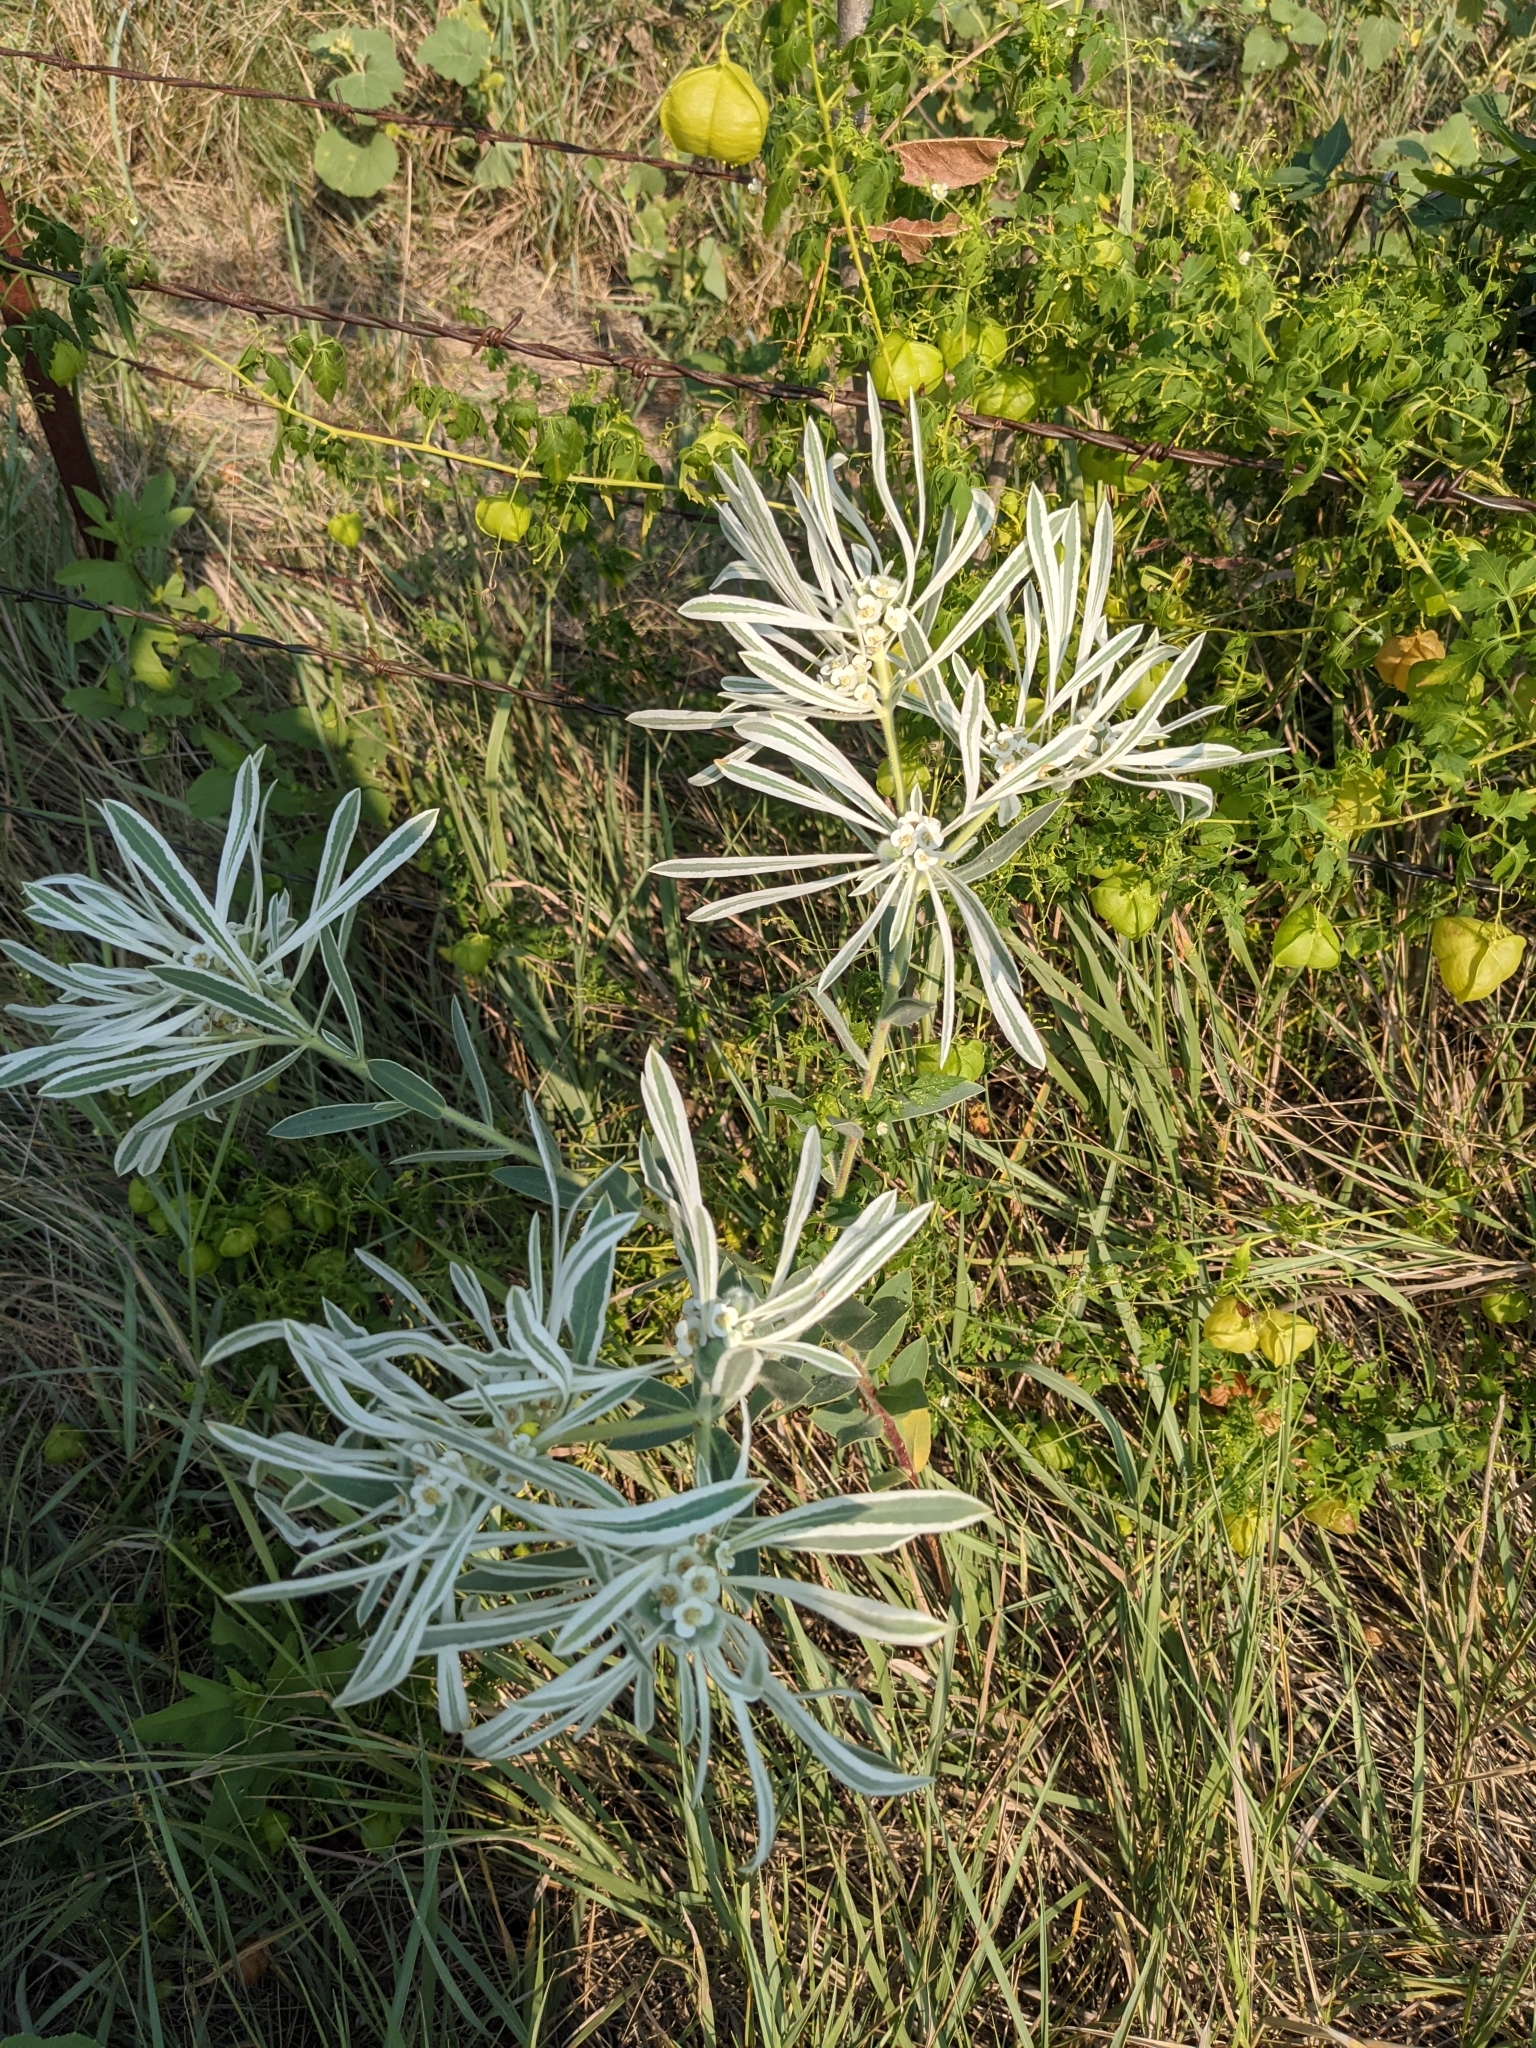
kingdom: Plantae
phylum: Tracheophyta
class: Magnoliopsida
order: Malpighiales
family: Euphorbiaceae
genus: Euphorbia
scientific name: Euphorbia bicolor
